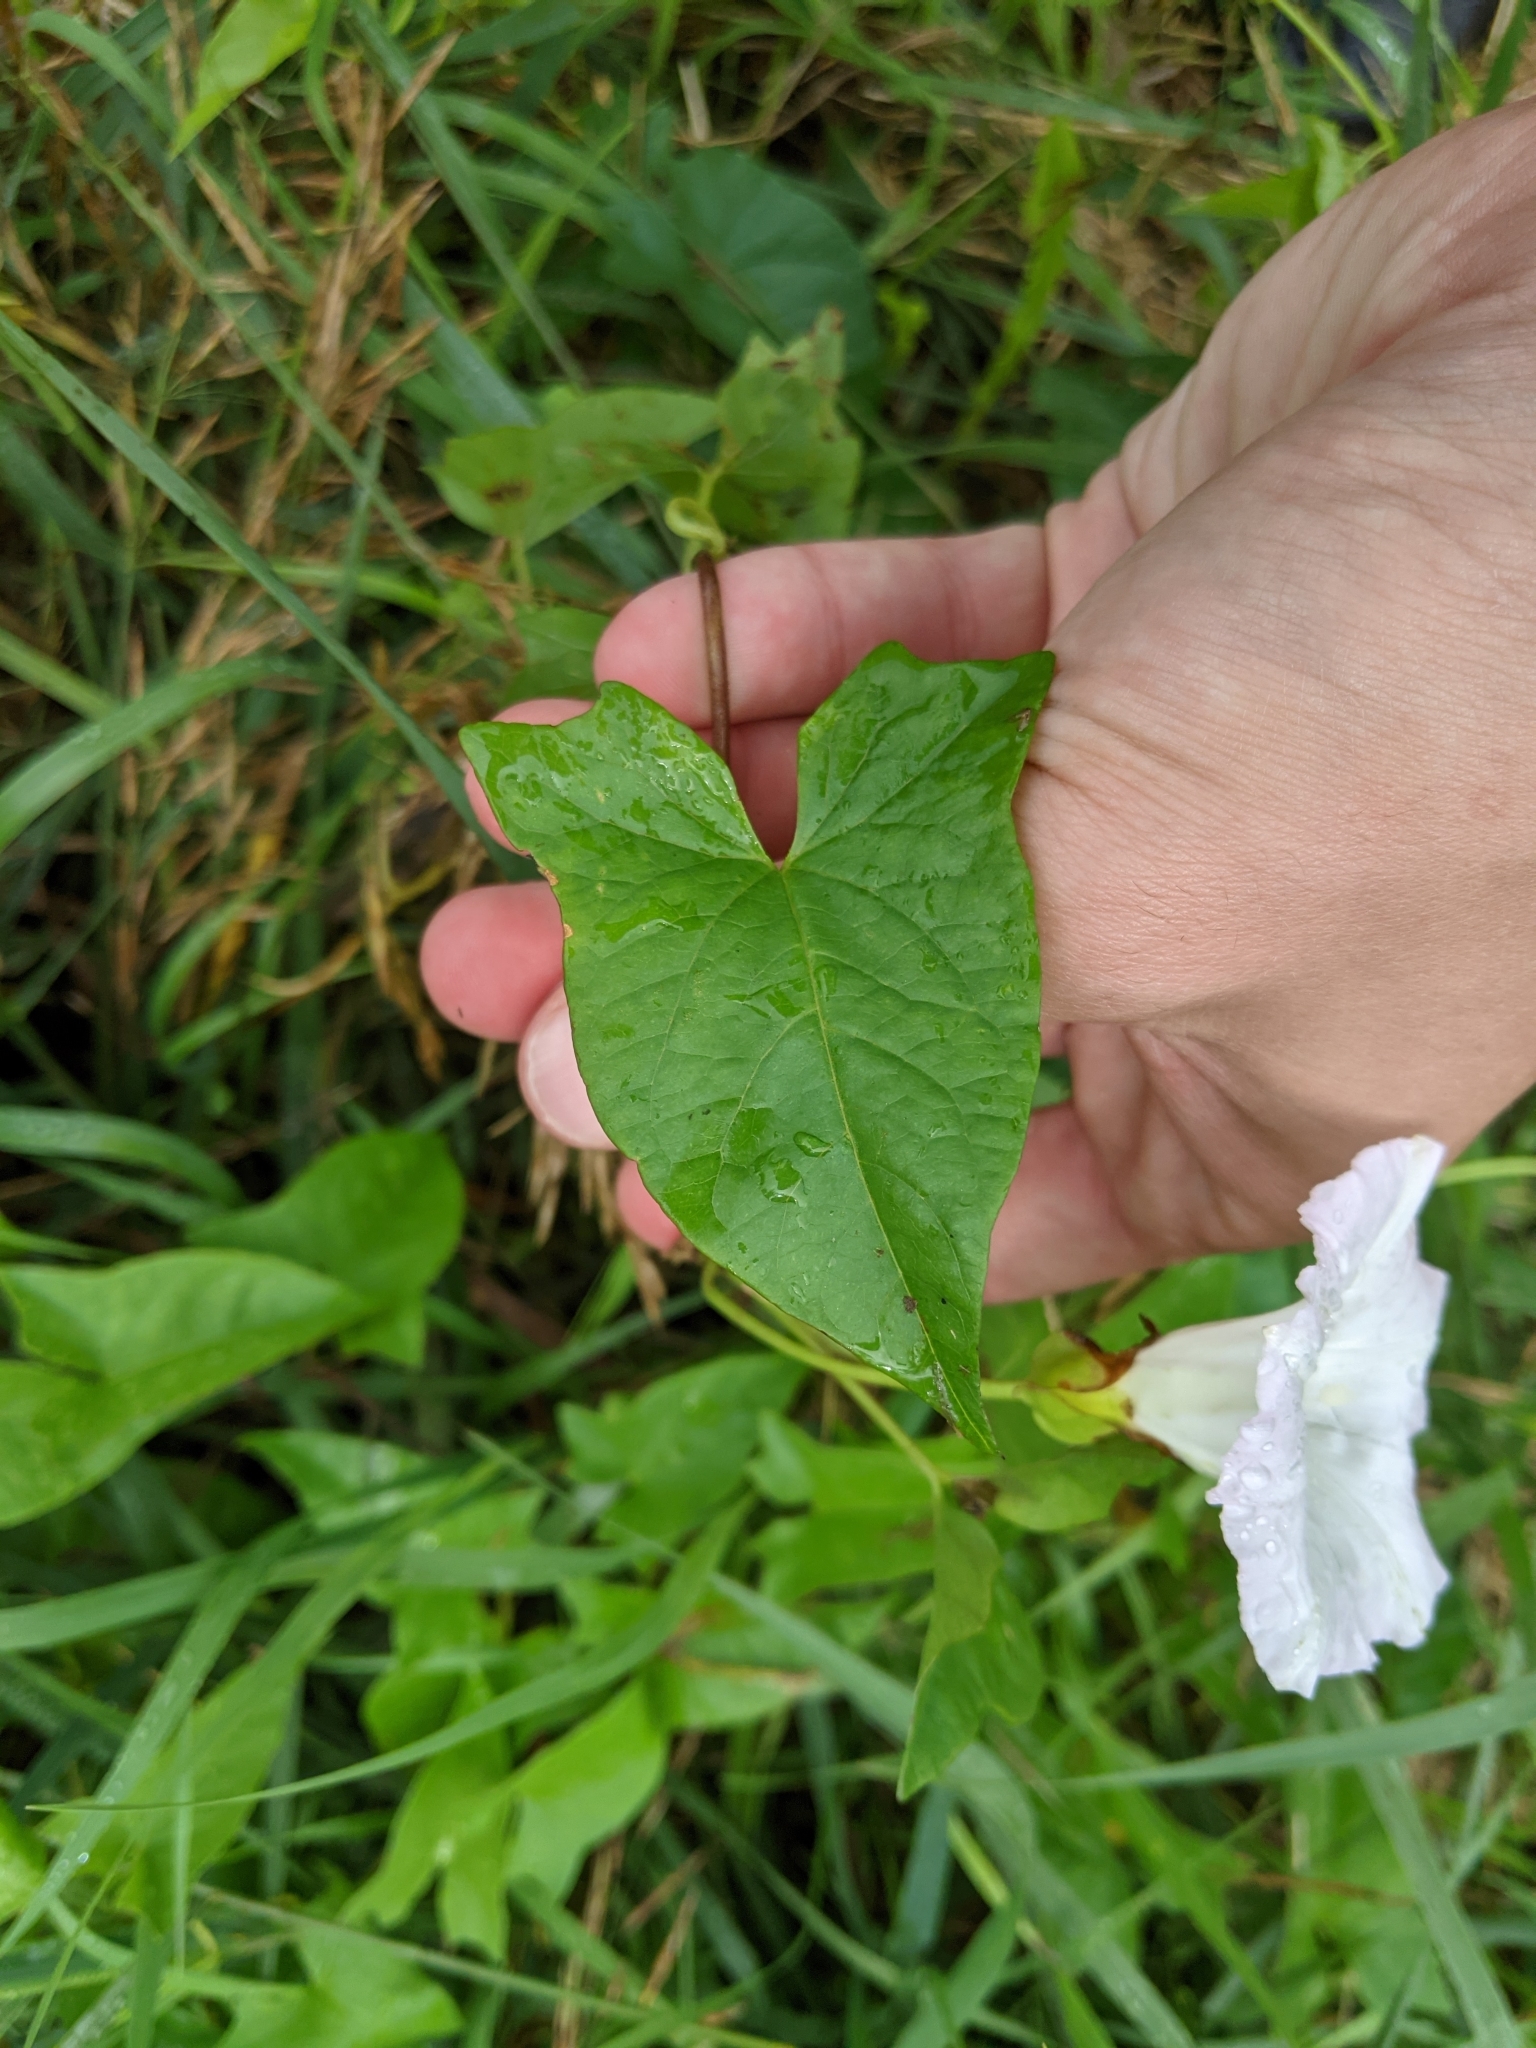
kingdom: Plantae
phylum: Tracheophyta
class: Magnoliopsida
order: Solanales
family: Convolvulaceae
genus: Calystegia
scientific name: Calystegia sepium
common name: Hedge bindweed
